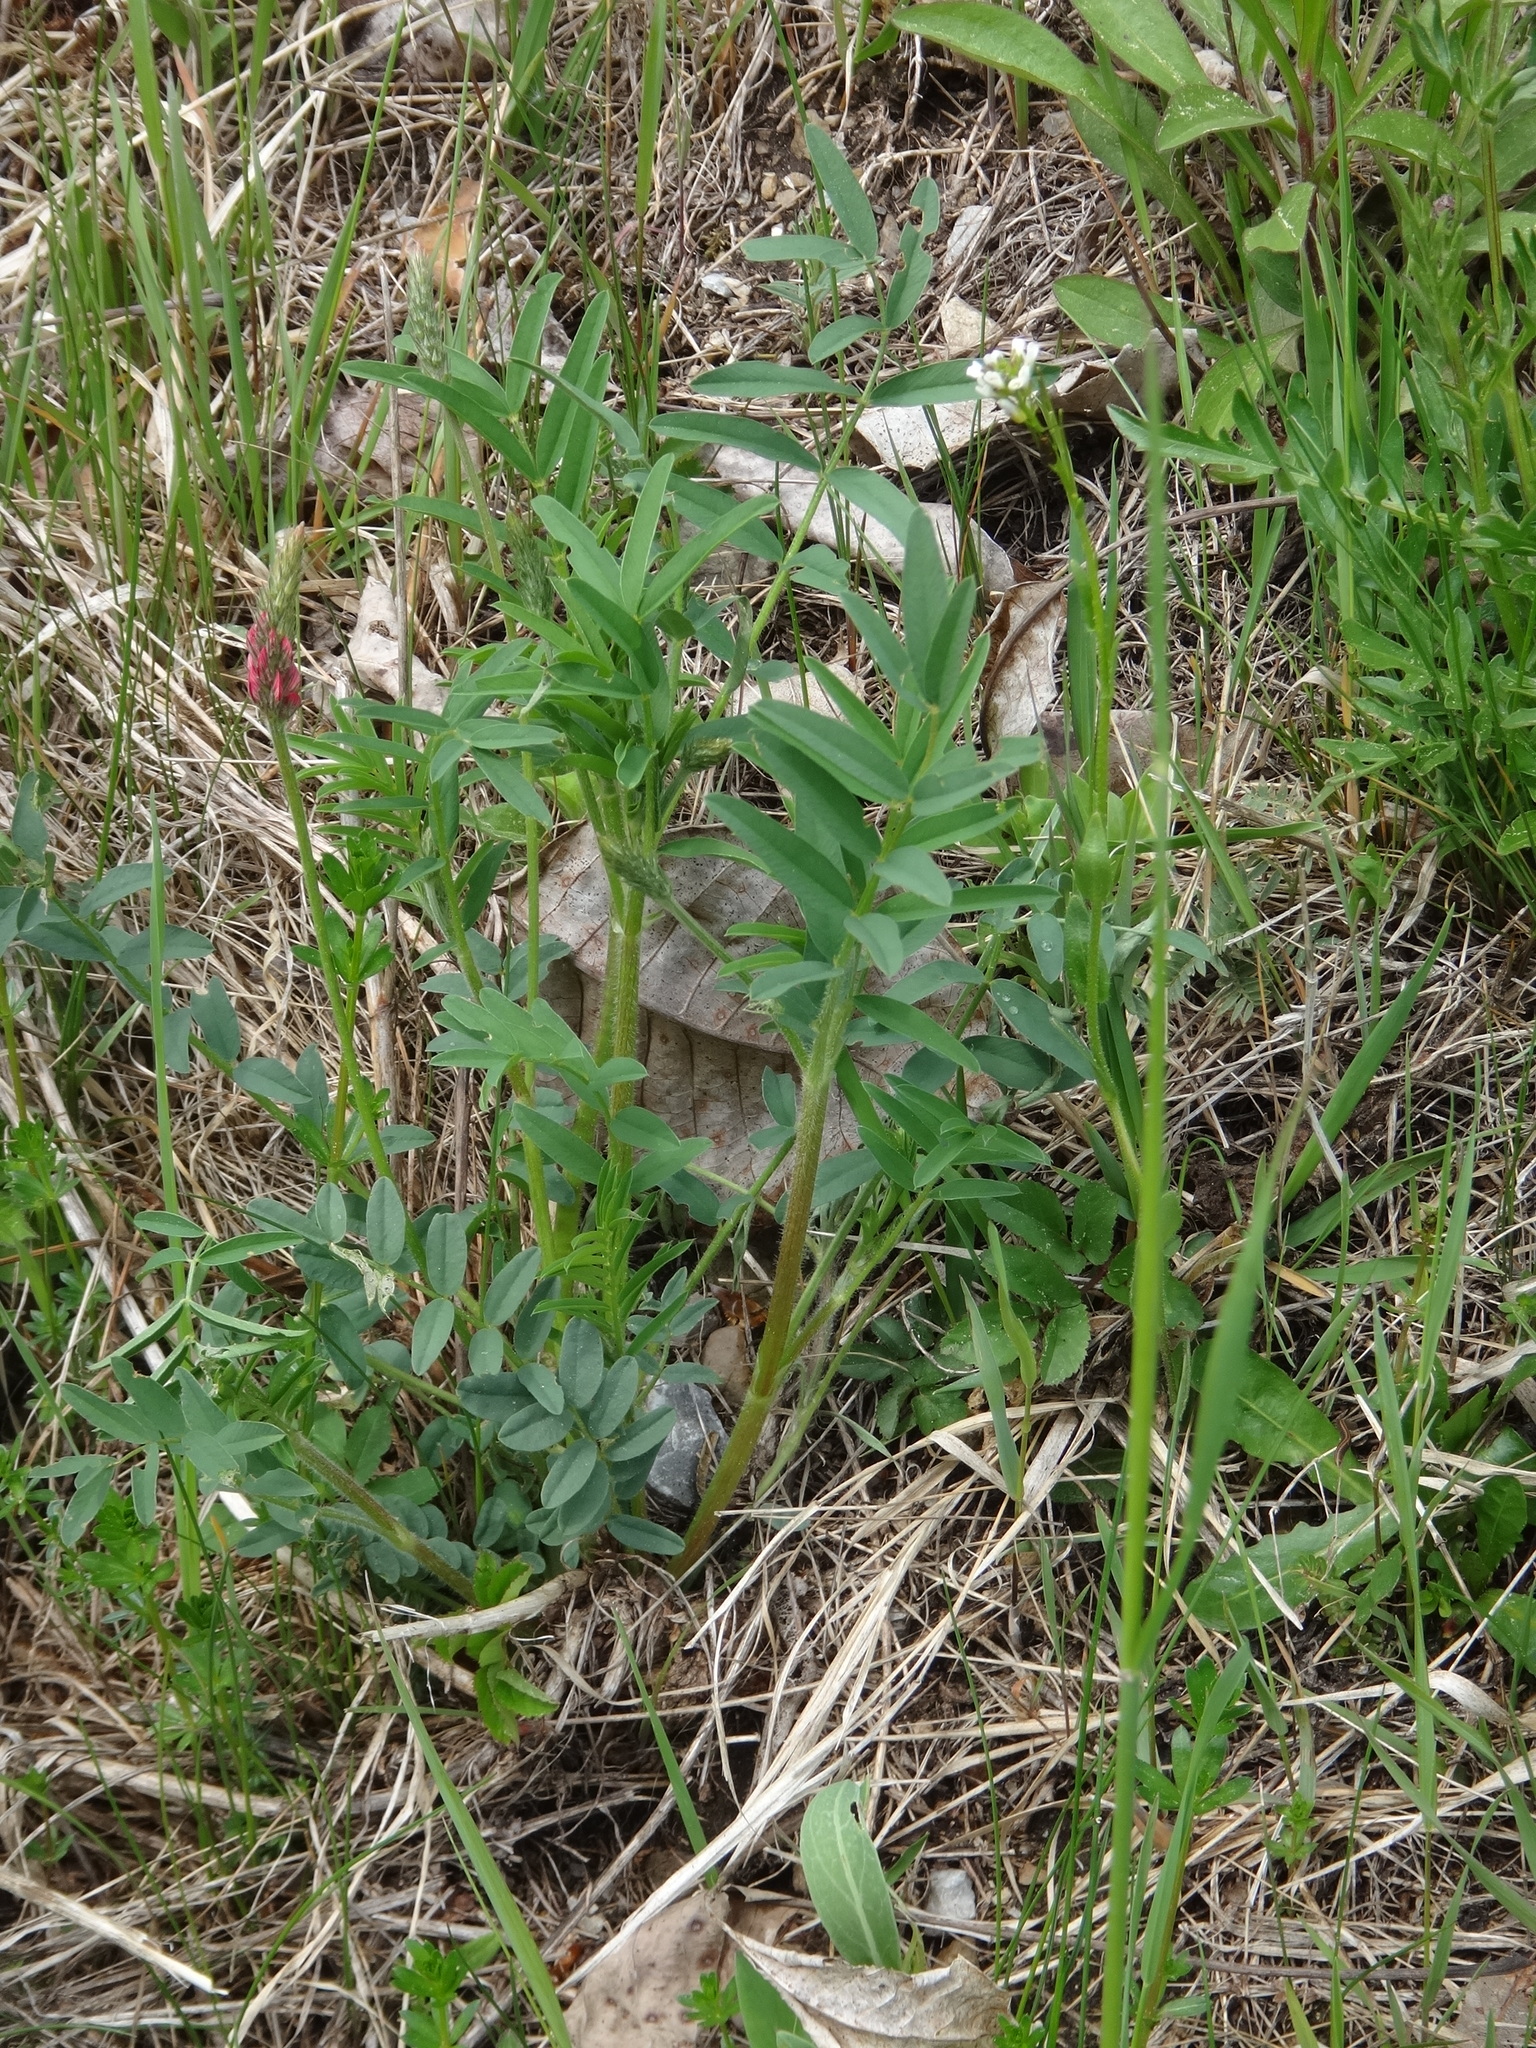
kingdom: Plantae
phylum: Tracheophyta
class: Magnoliopsida
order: Fabales
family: Fabaceae
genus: Onobrychis
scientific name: Onobrychis viciifolia
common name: Sainfoin
